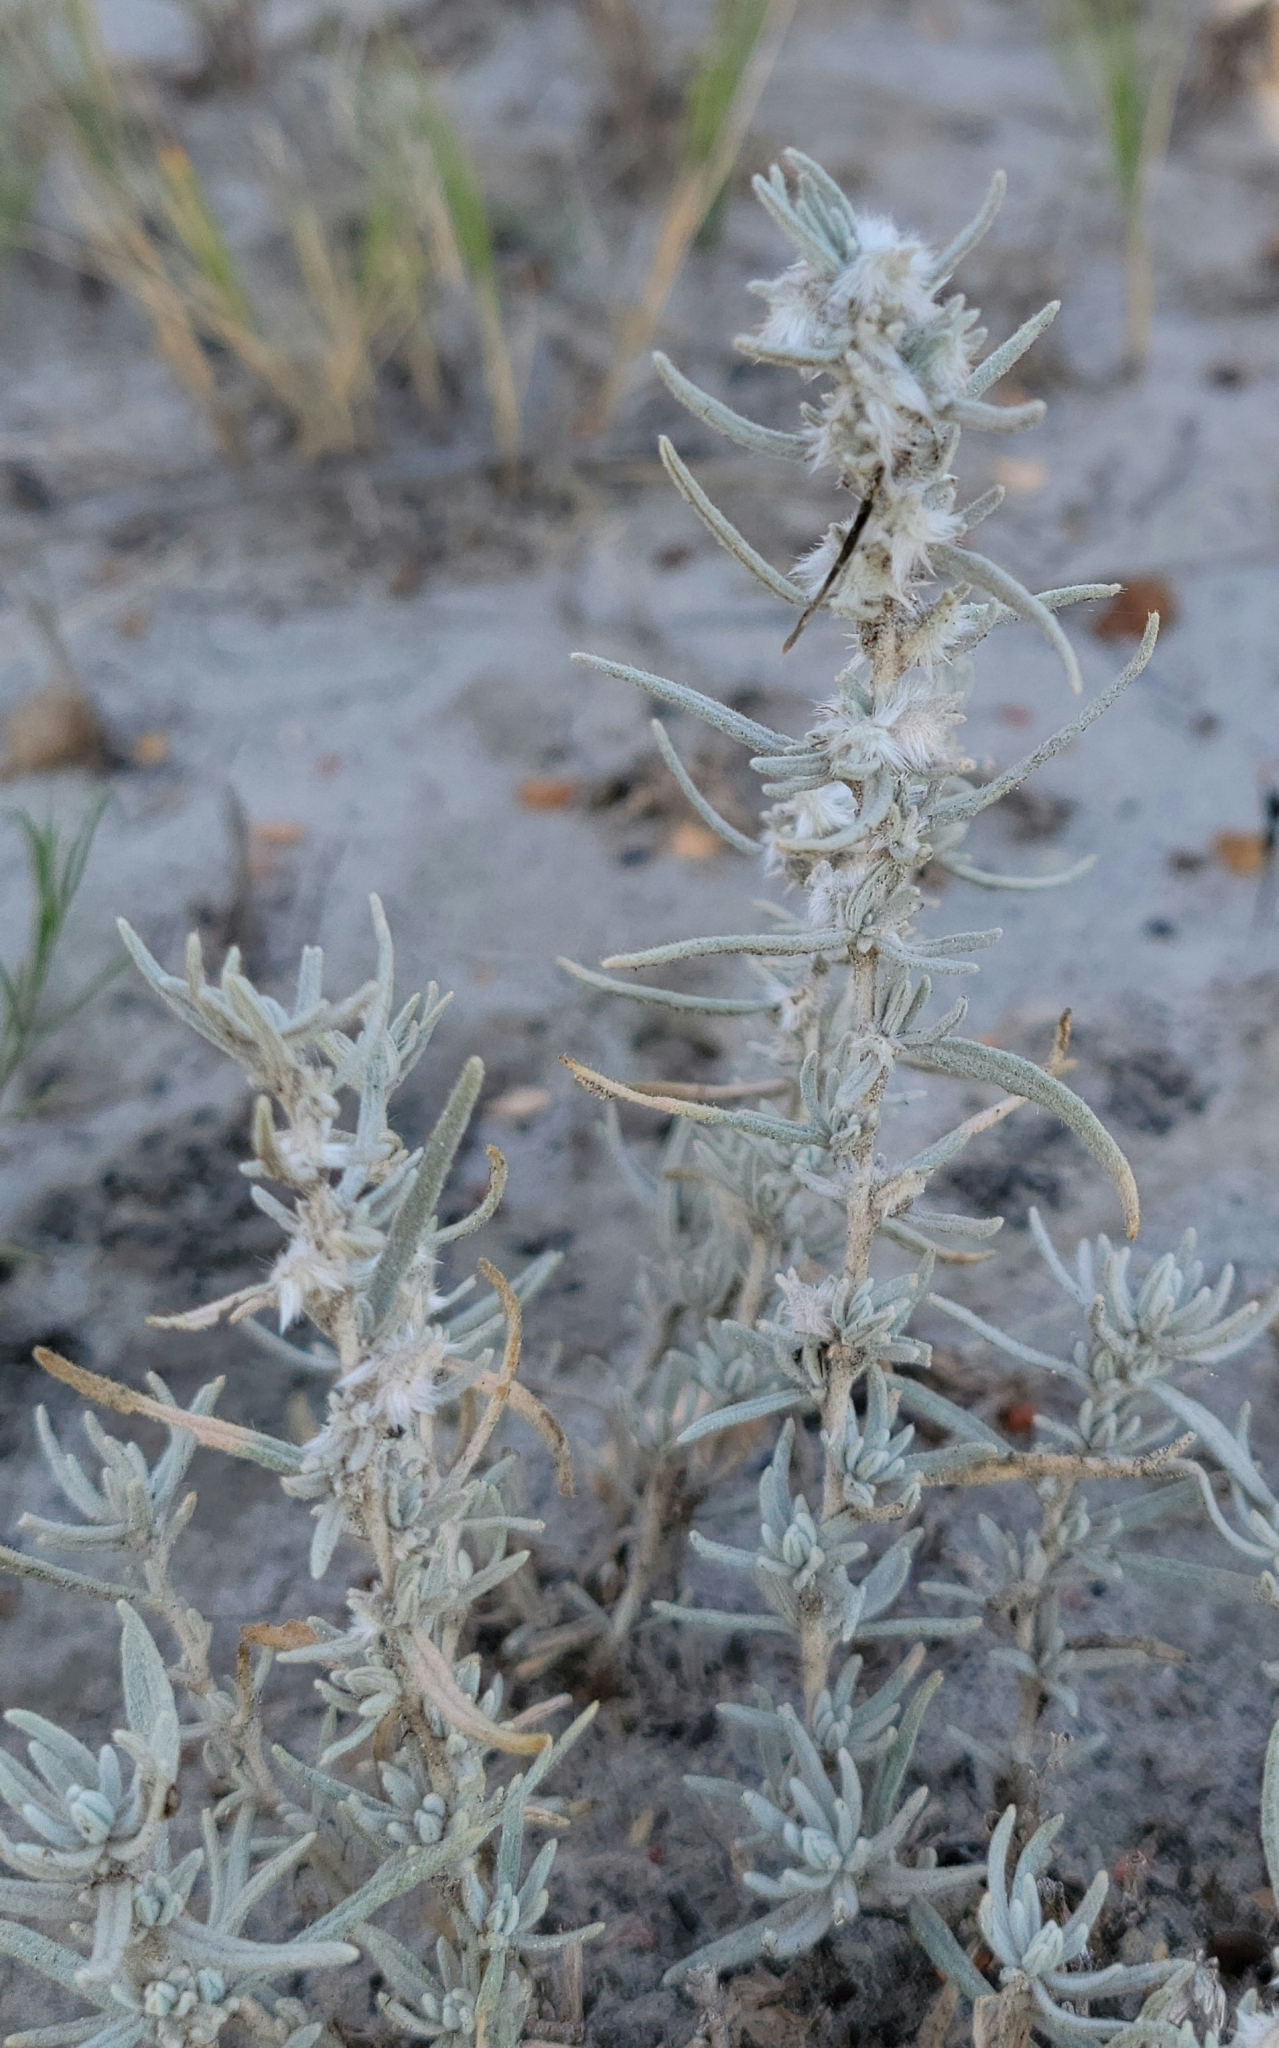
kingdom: Plantae
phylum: Tracheophyta
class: Magnoliopsida
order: Caryophyllales
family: Amaranthaceae
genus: Krascheninnikovia
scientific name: Krascheninnikovia lanata
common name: Winterfat
